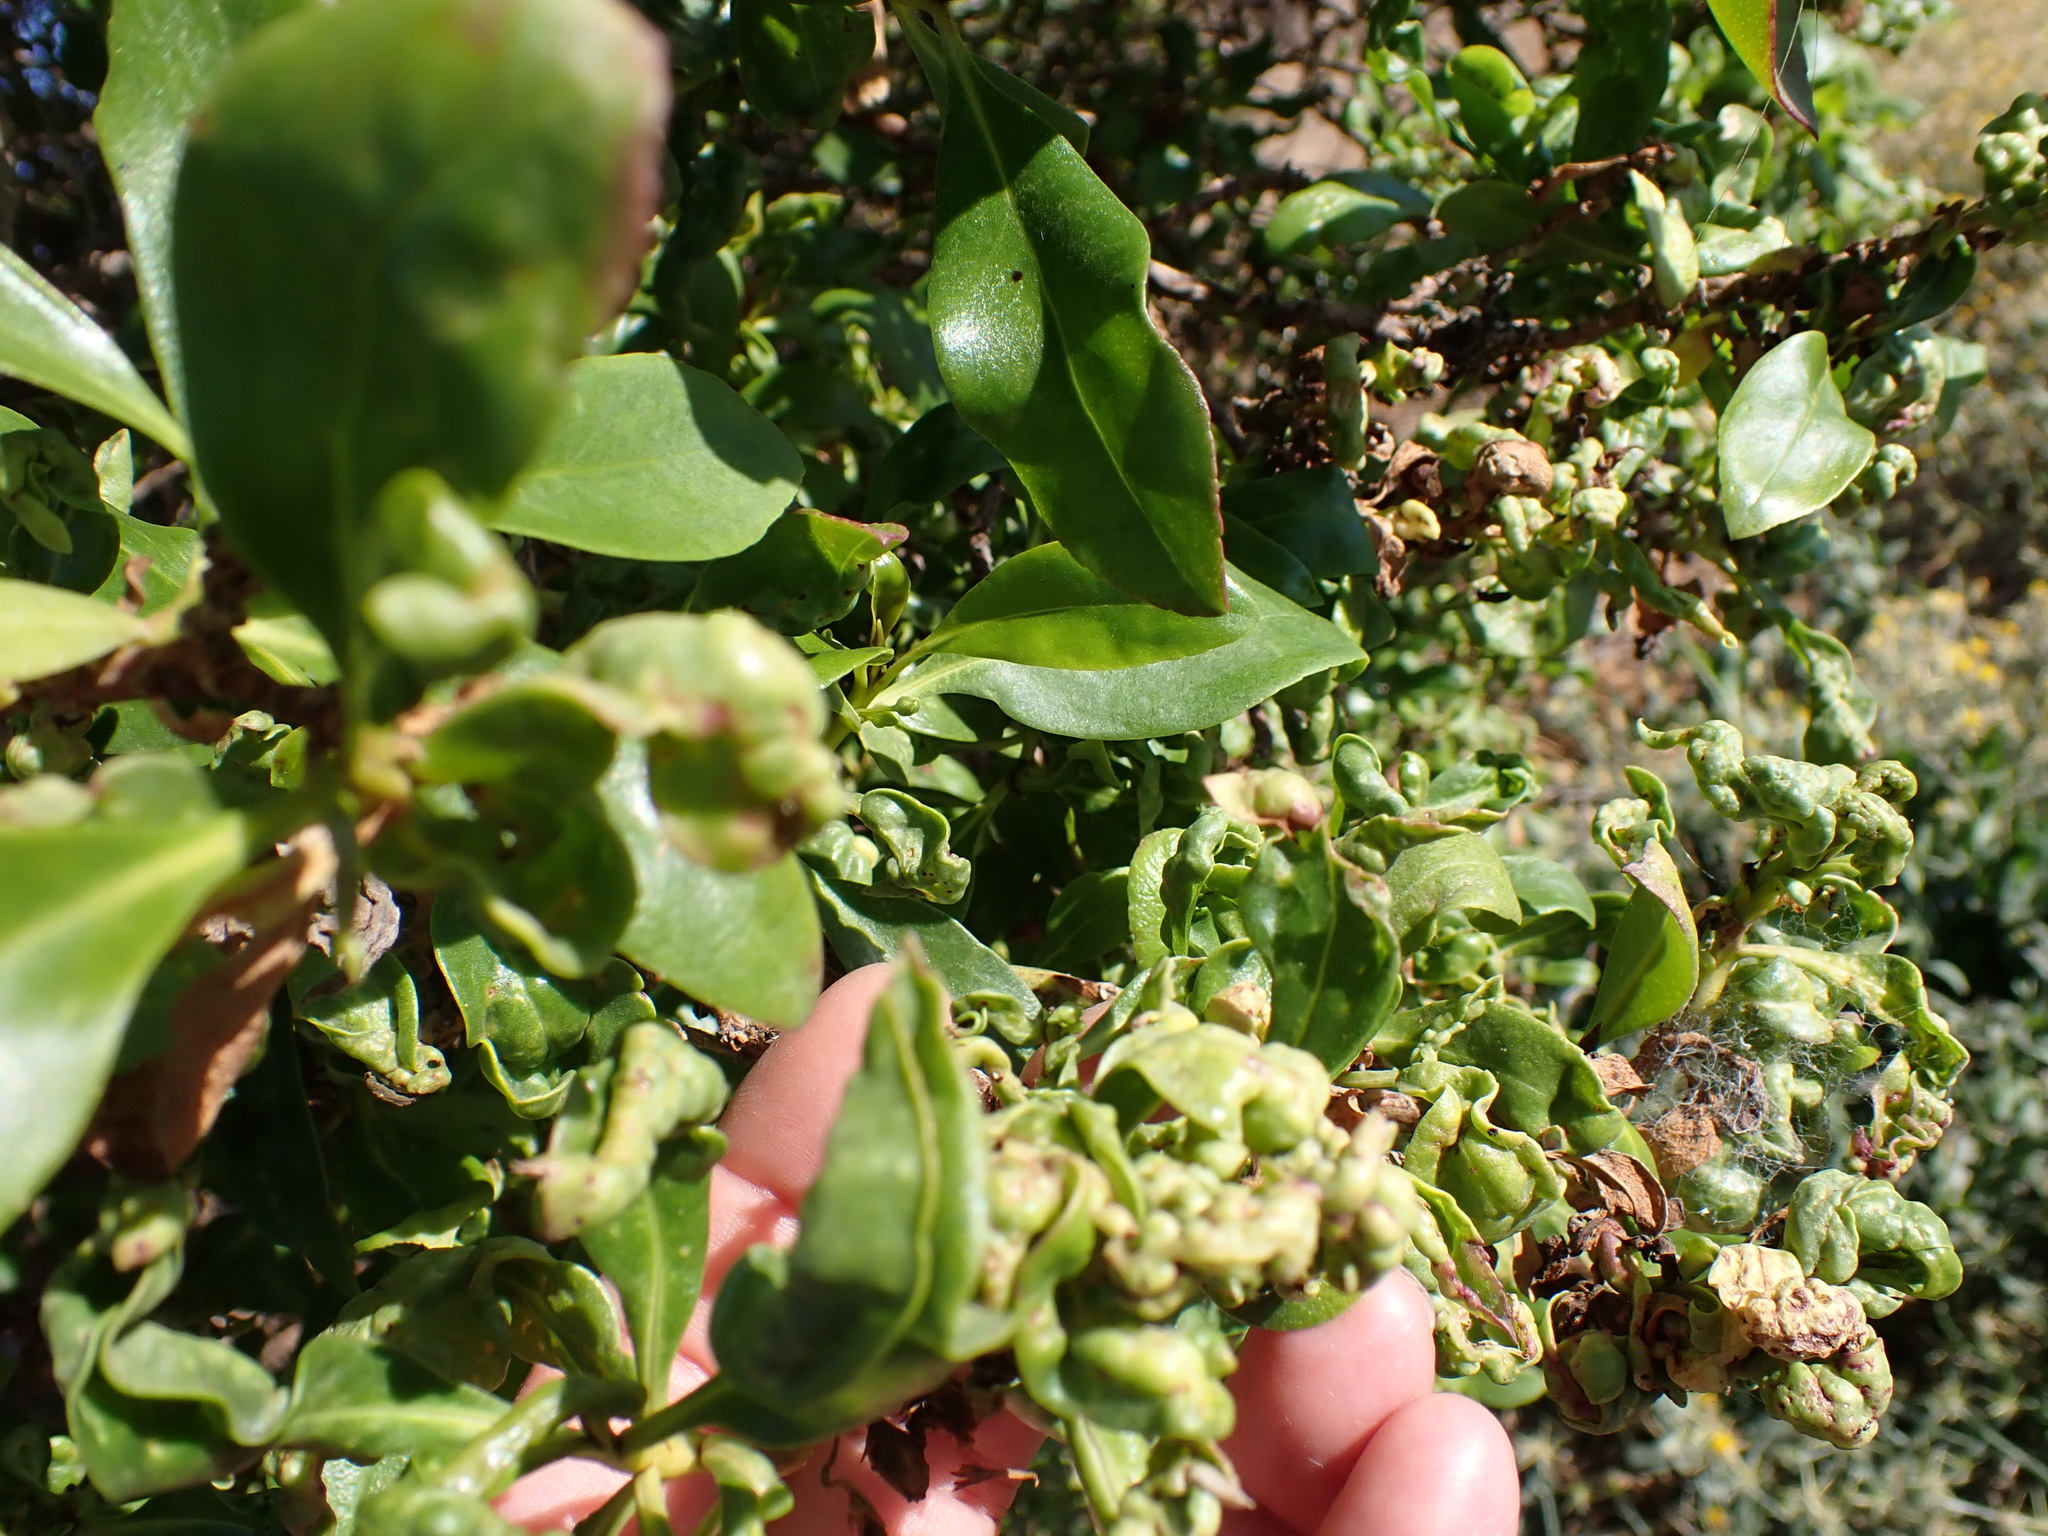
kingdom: Animalia
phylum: Arthropoda
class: Insecta
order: Thysanoptera
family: Phlaeothripidae
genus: Klambothrips
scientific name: Klambothrips myopori
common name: Myoporum thrips
